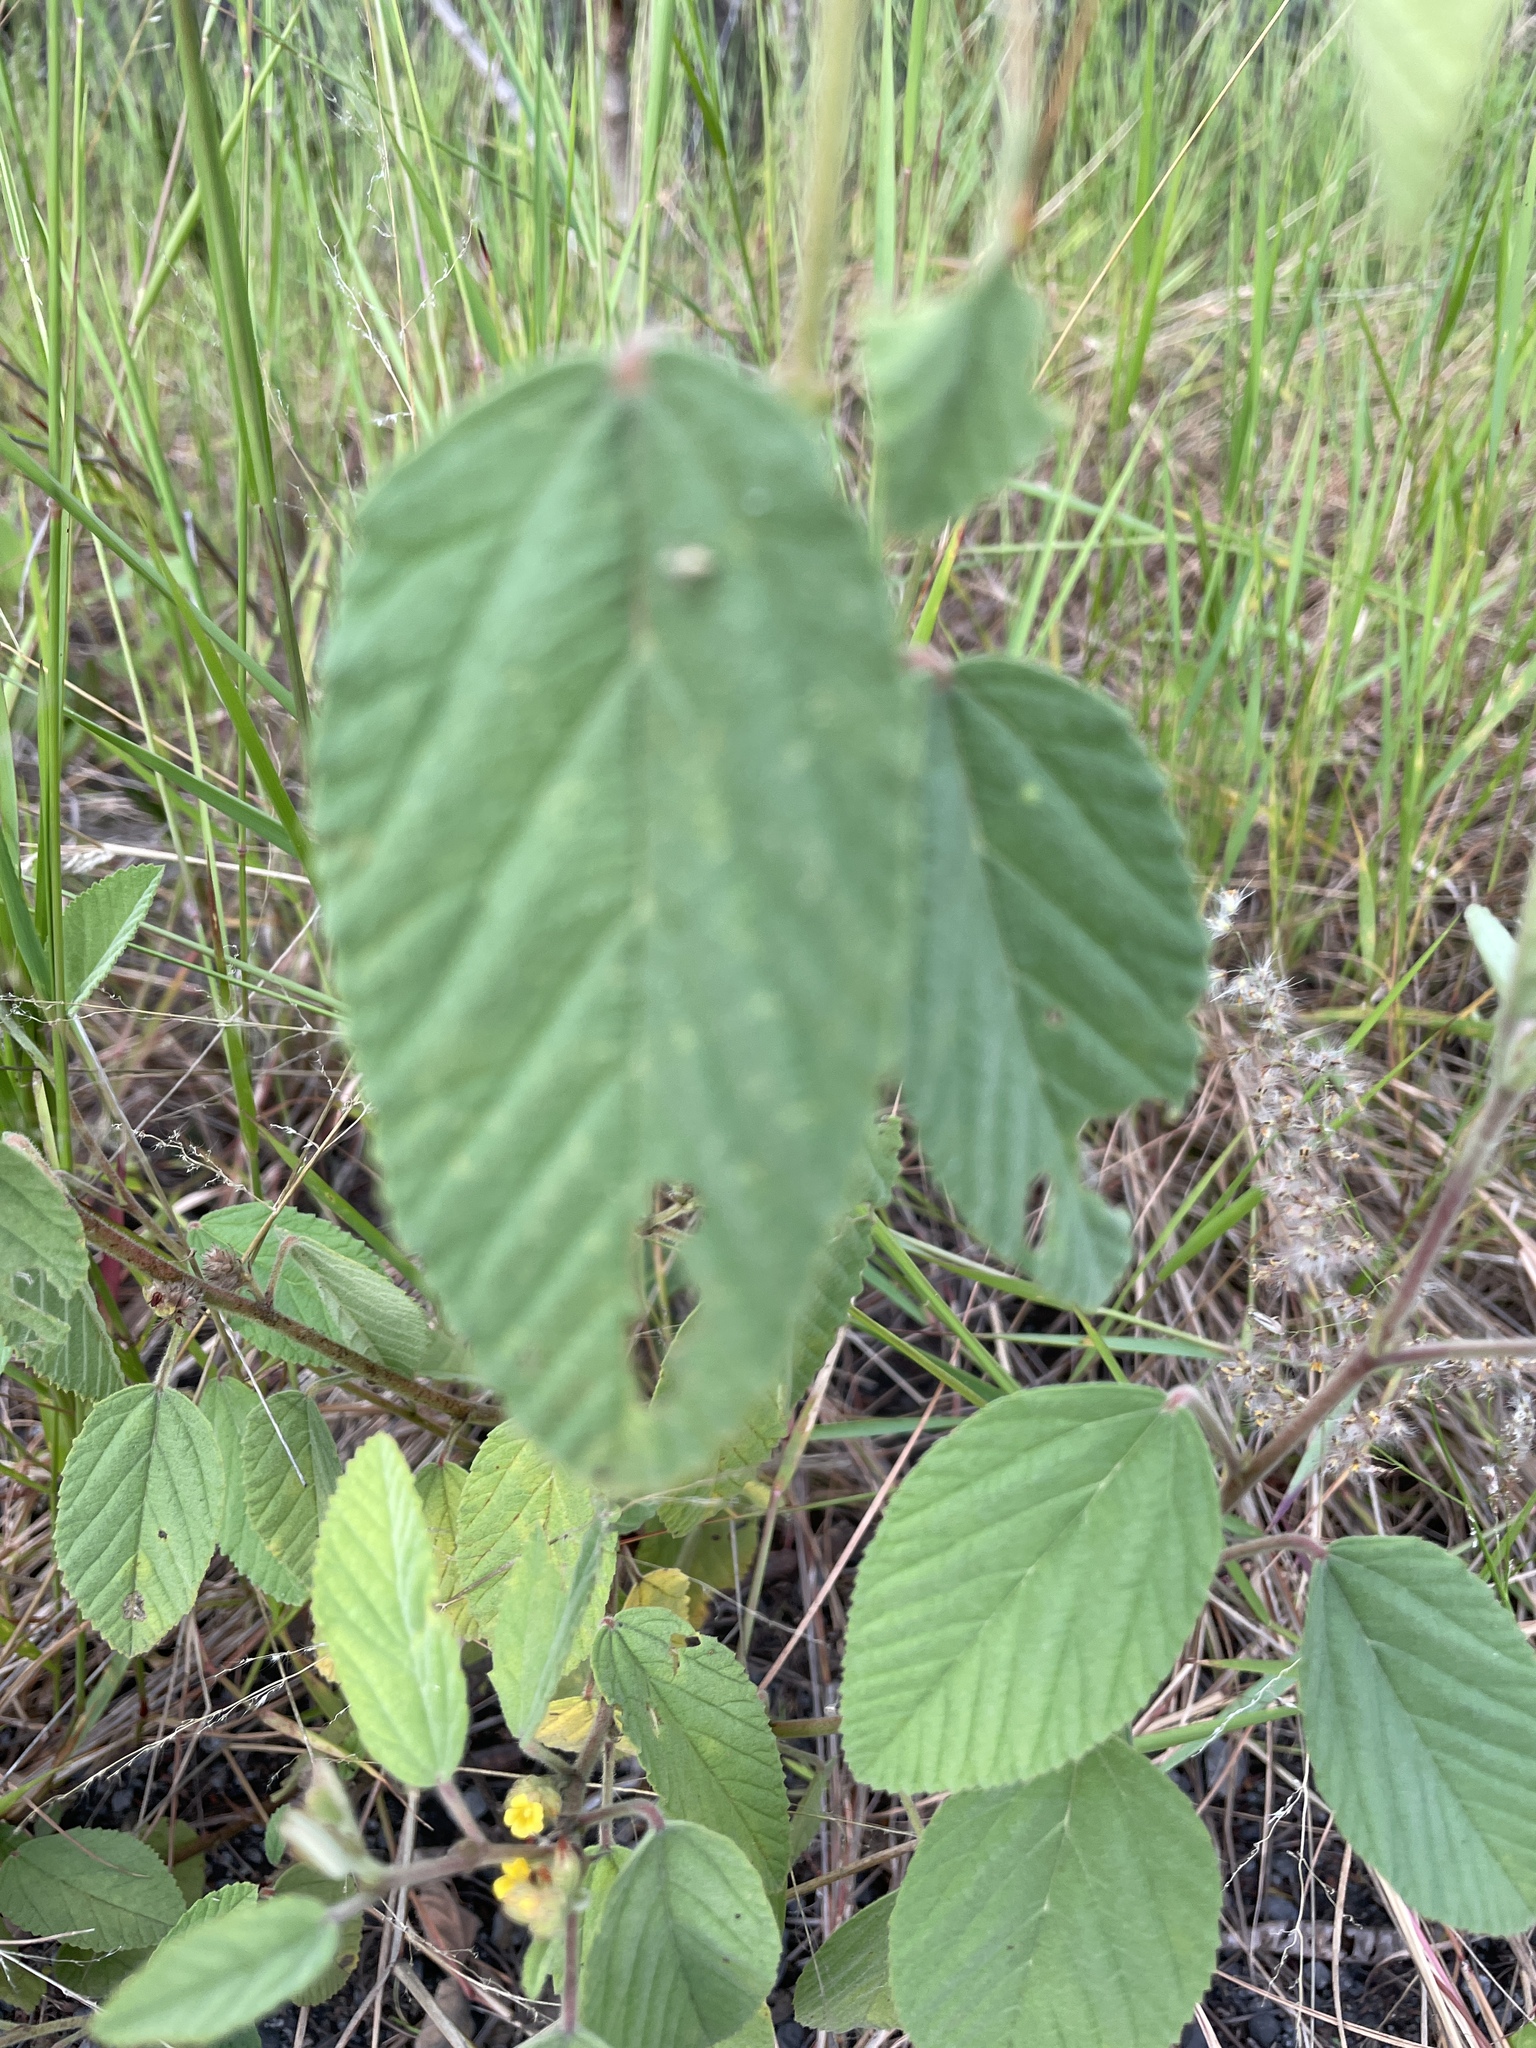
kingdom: Plantae
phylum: Tracheophyta
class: Magnoliopsida
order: Malvales
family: Malvaceae
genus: Waltheria
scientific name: Waltheria indica
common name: Leather-coat
